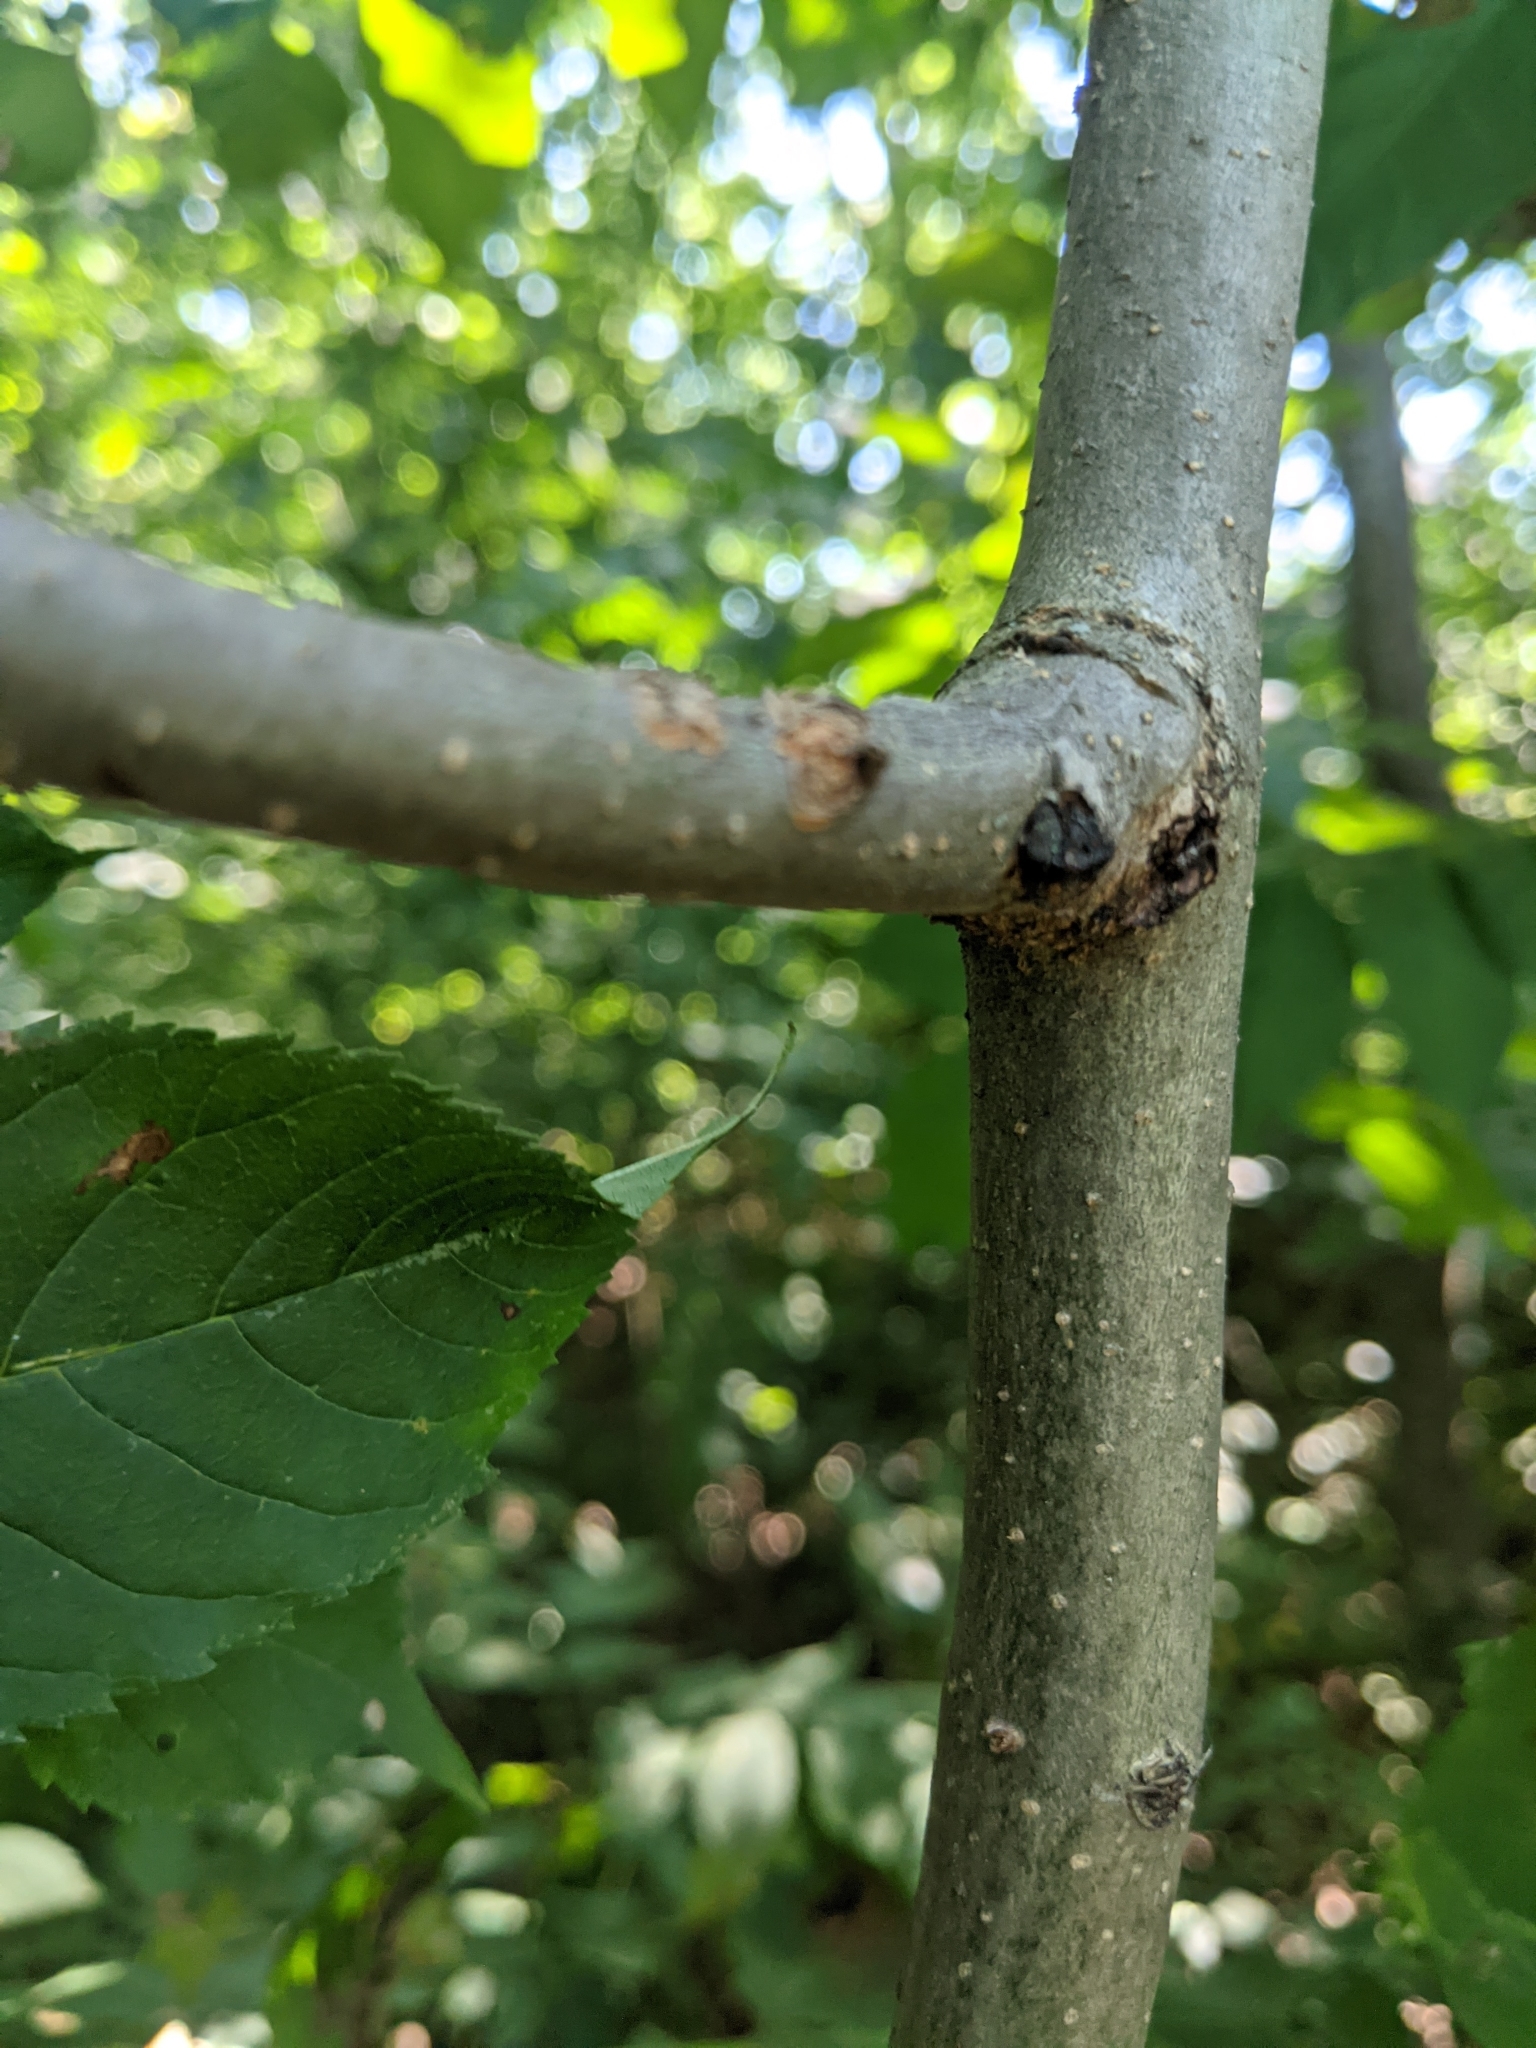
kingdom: Plantae
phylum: Tracheophyta
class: Magnoliopsida
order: Lamiales
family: Oleaceae
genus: Fraxinus
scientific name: Fraxinus excelsior
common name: European ash
